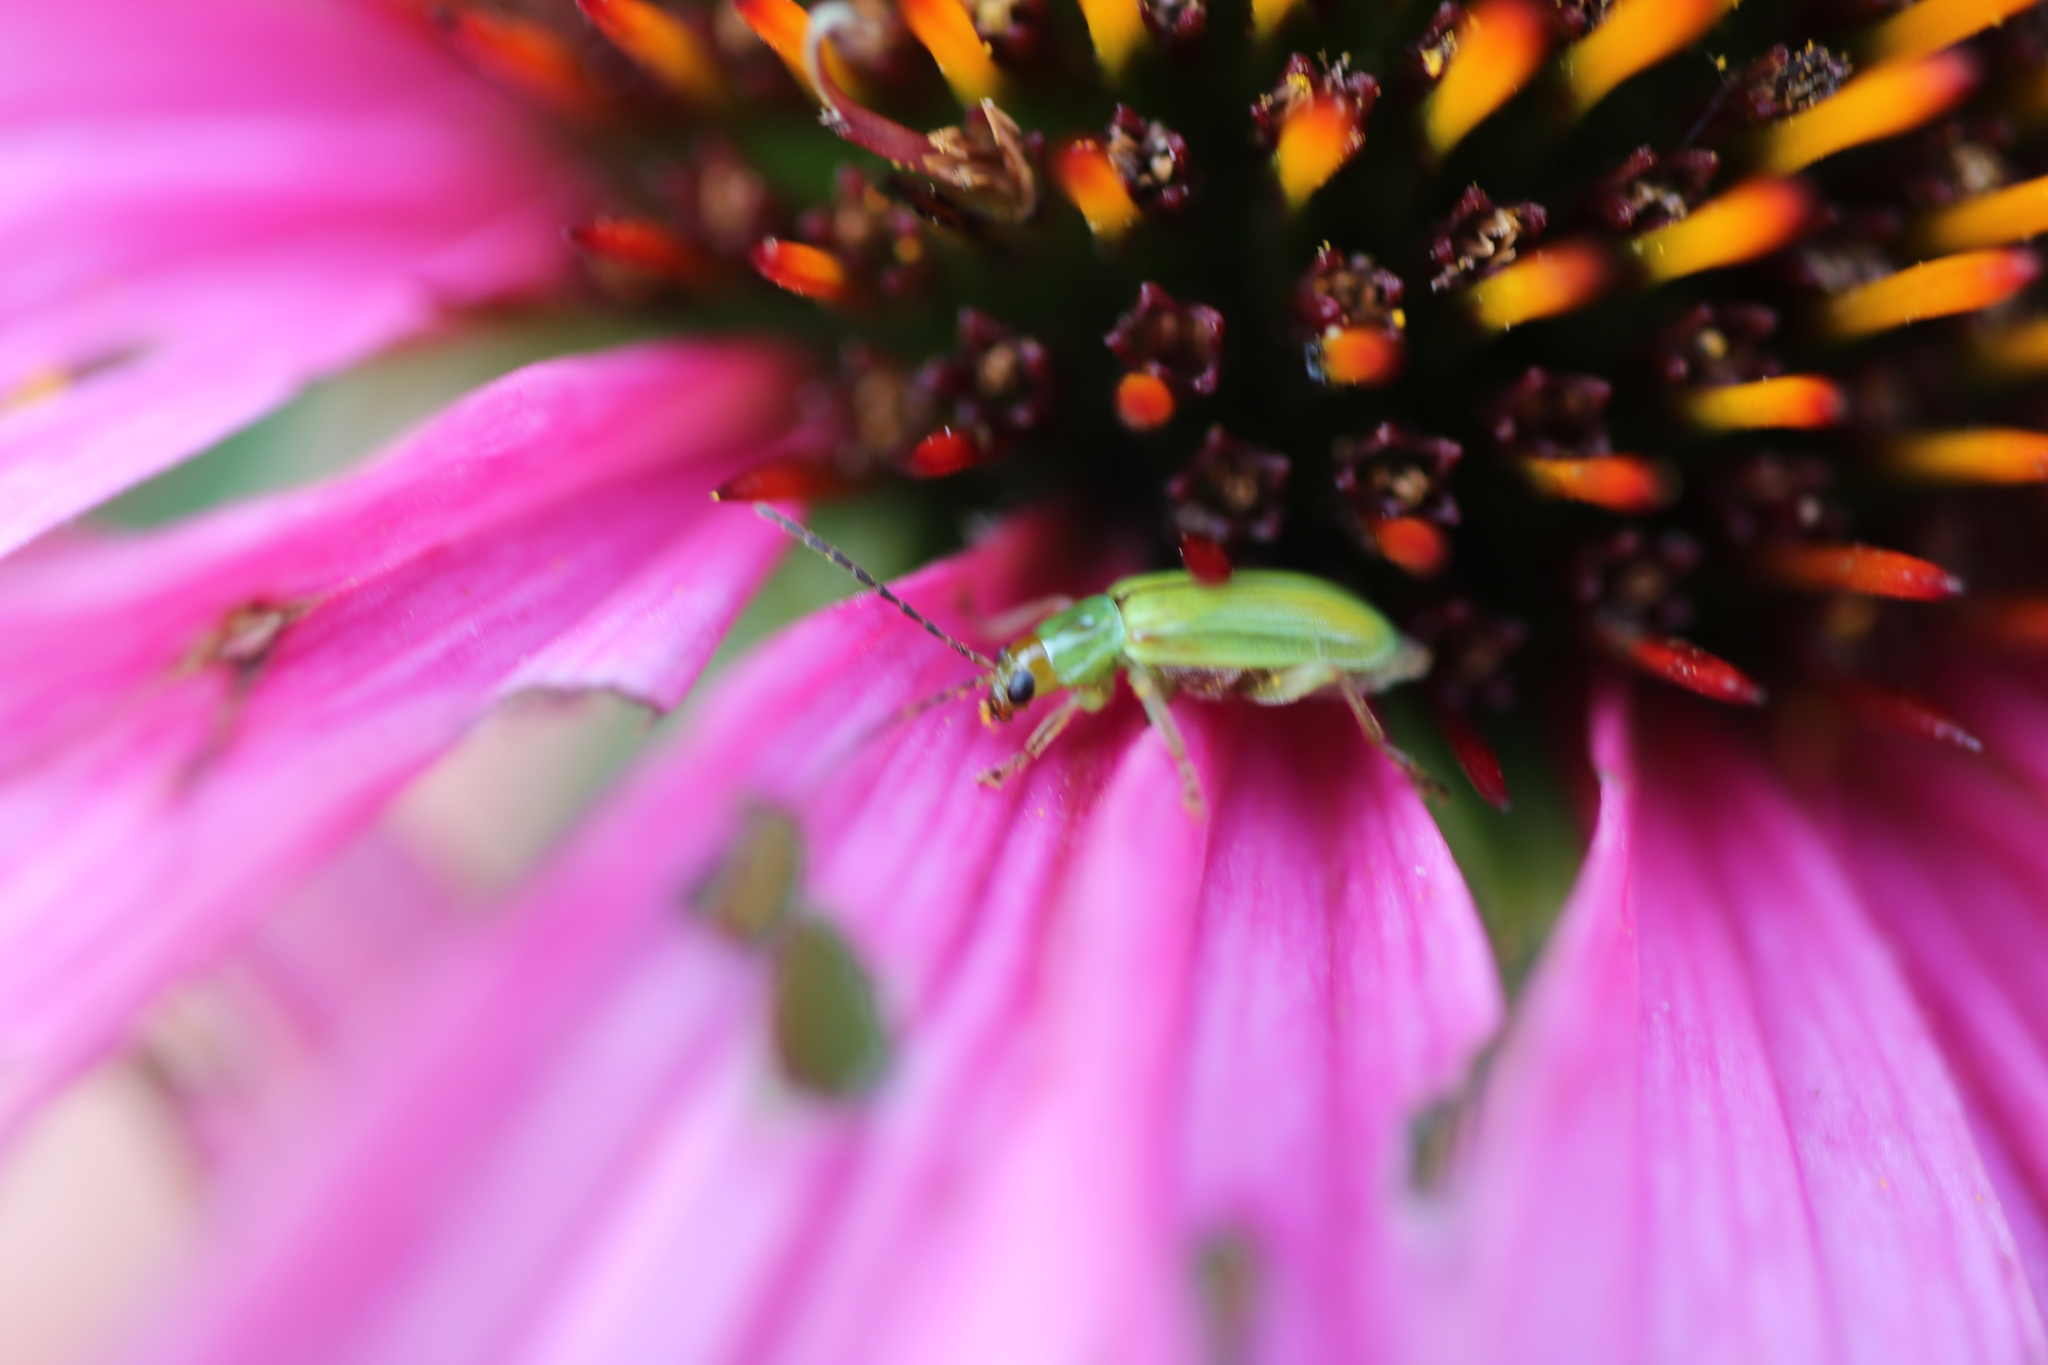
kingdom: Animalia
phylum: Arthropoda
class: Insecta
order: Coleoptera
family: Chrysomelidae
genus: Diabrotica
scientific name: Diabrotica barberi
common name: Northern corn rootworm
